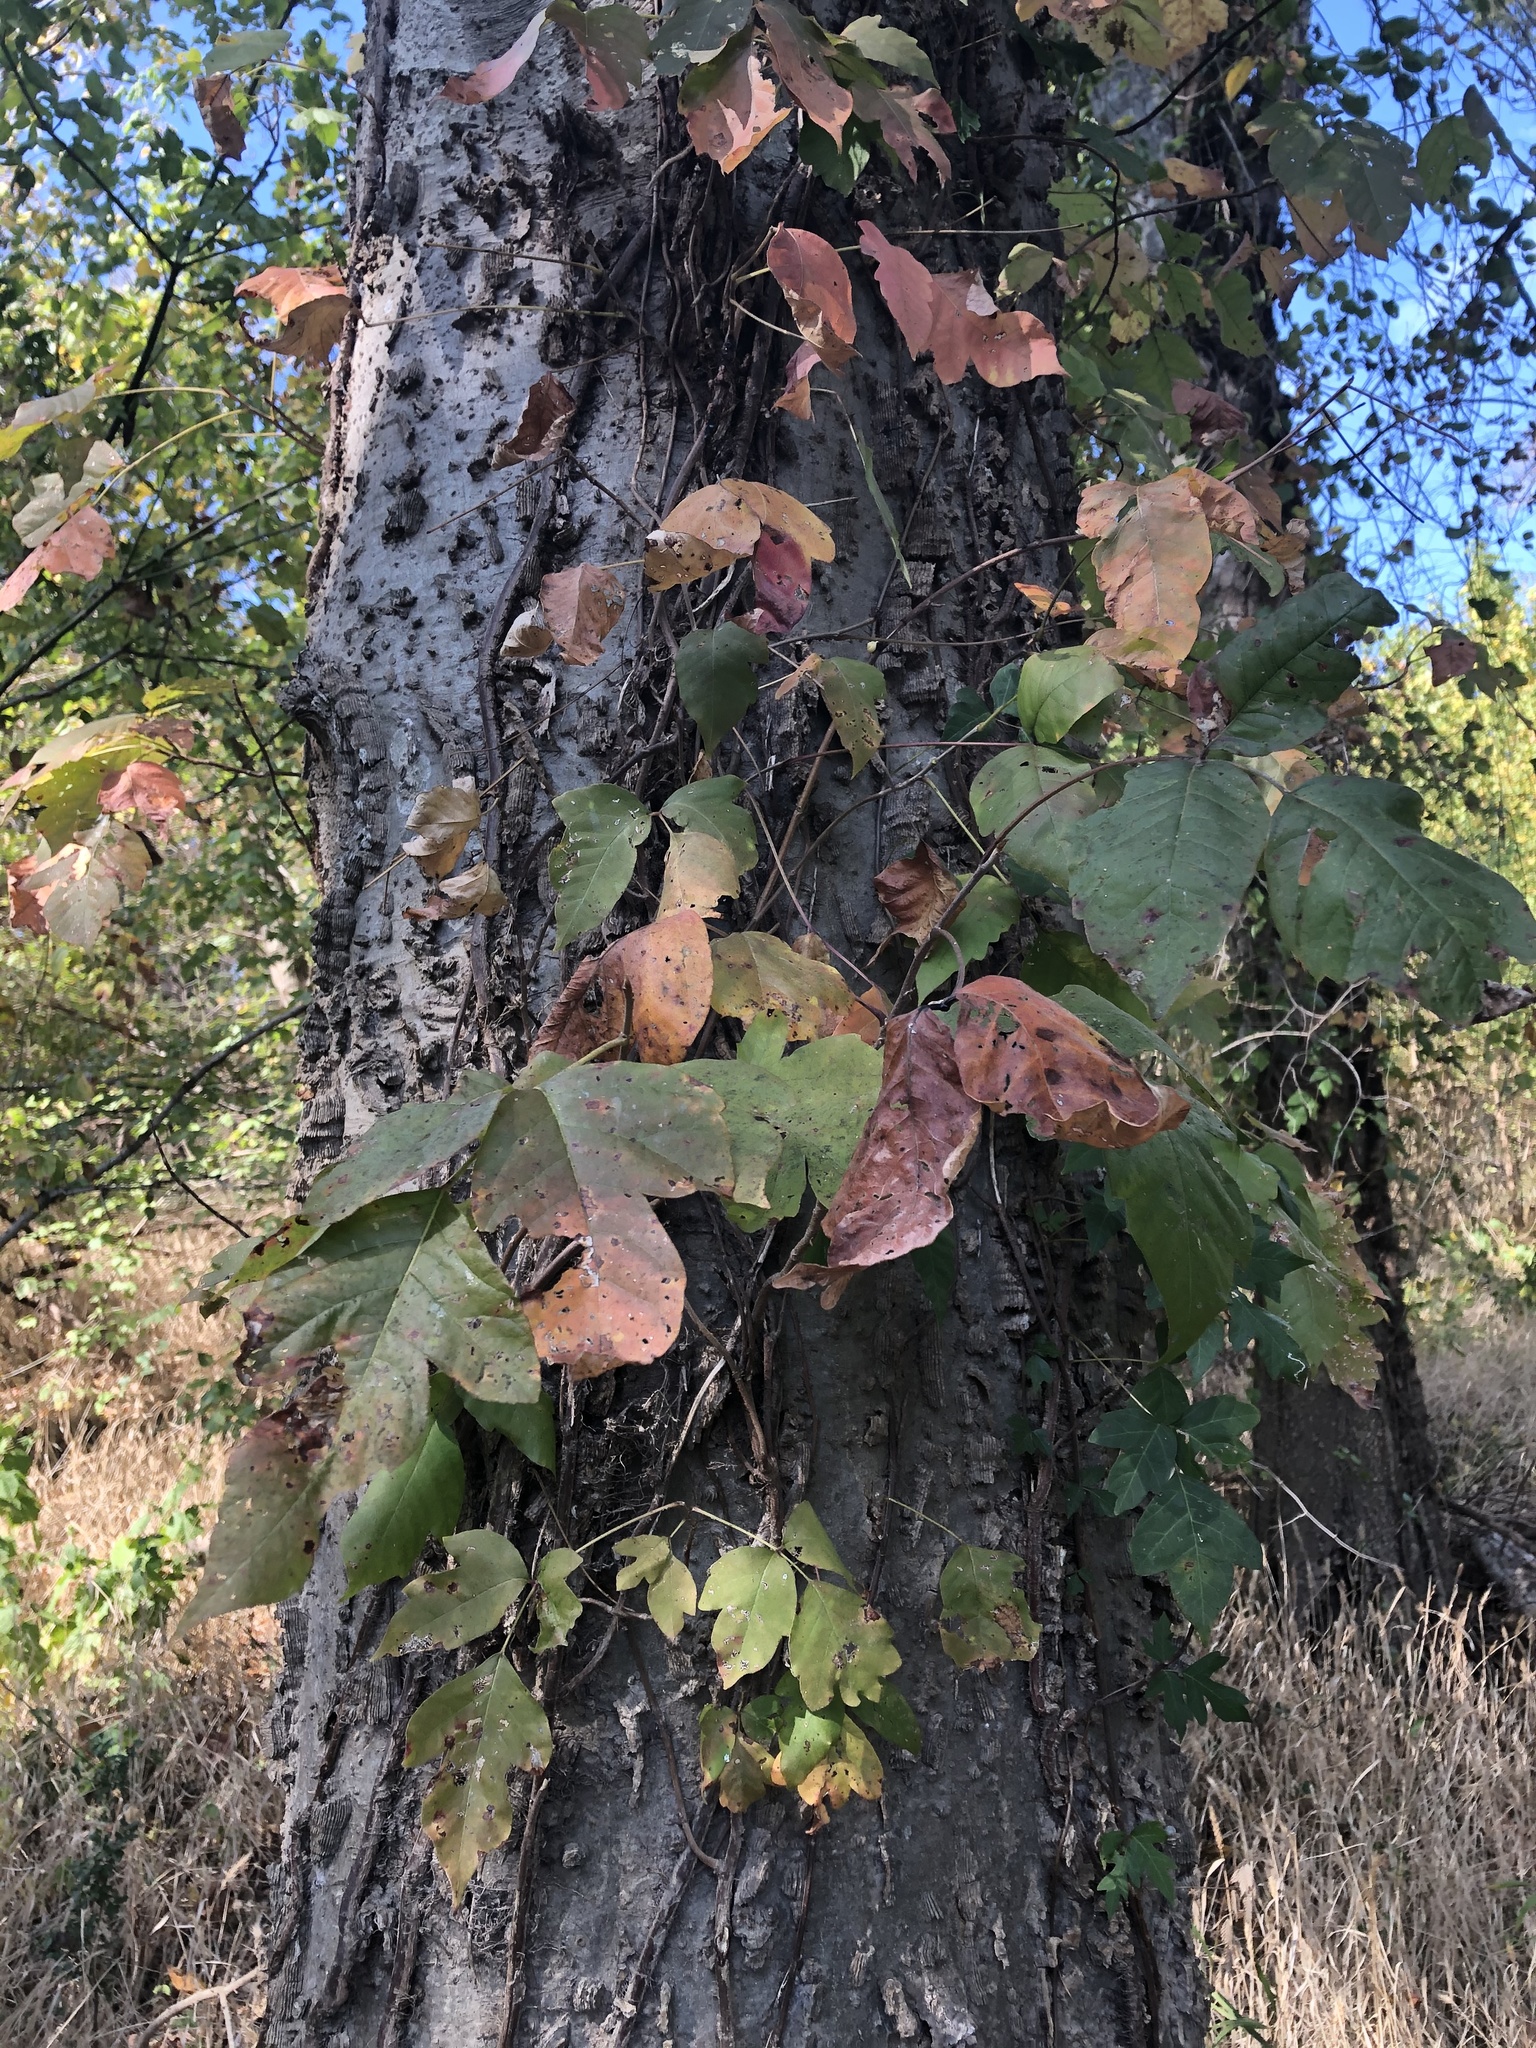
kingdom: Plantae
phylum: Tracheophyta
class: Magnoliopsida
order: Sapindales
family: Anacardiaceae
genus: Toxicodendron
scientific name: Toxicodendron radicans
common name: Poison ivy
